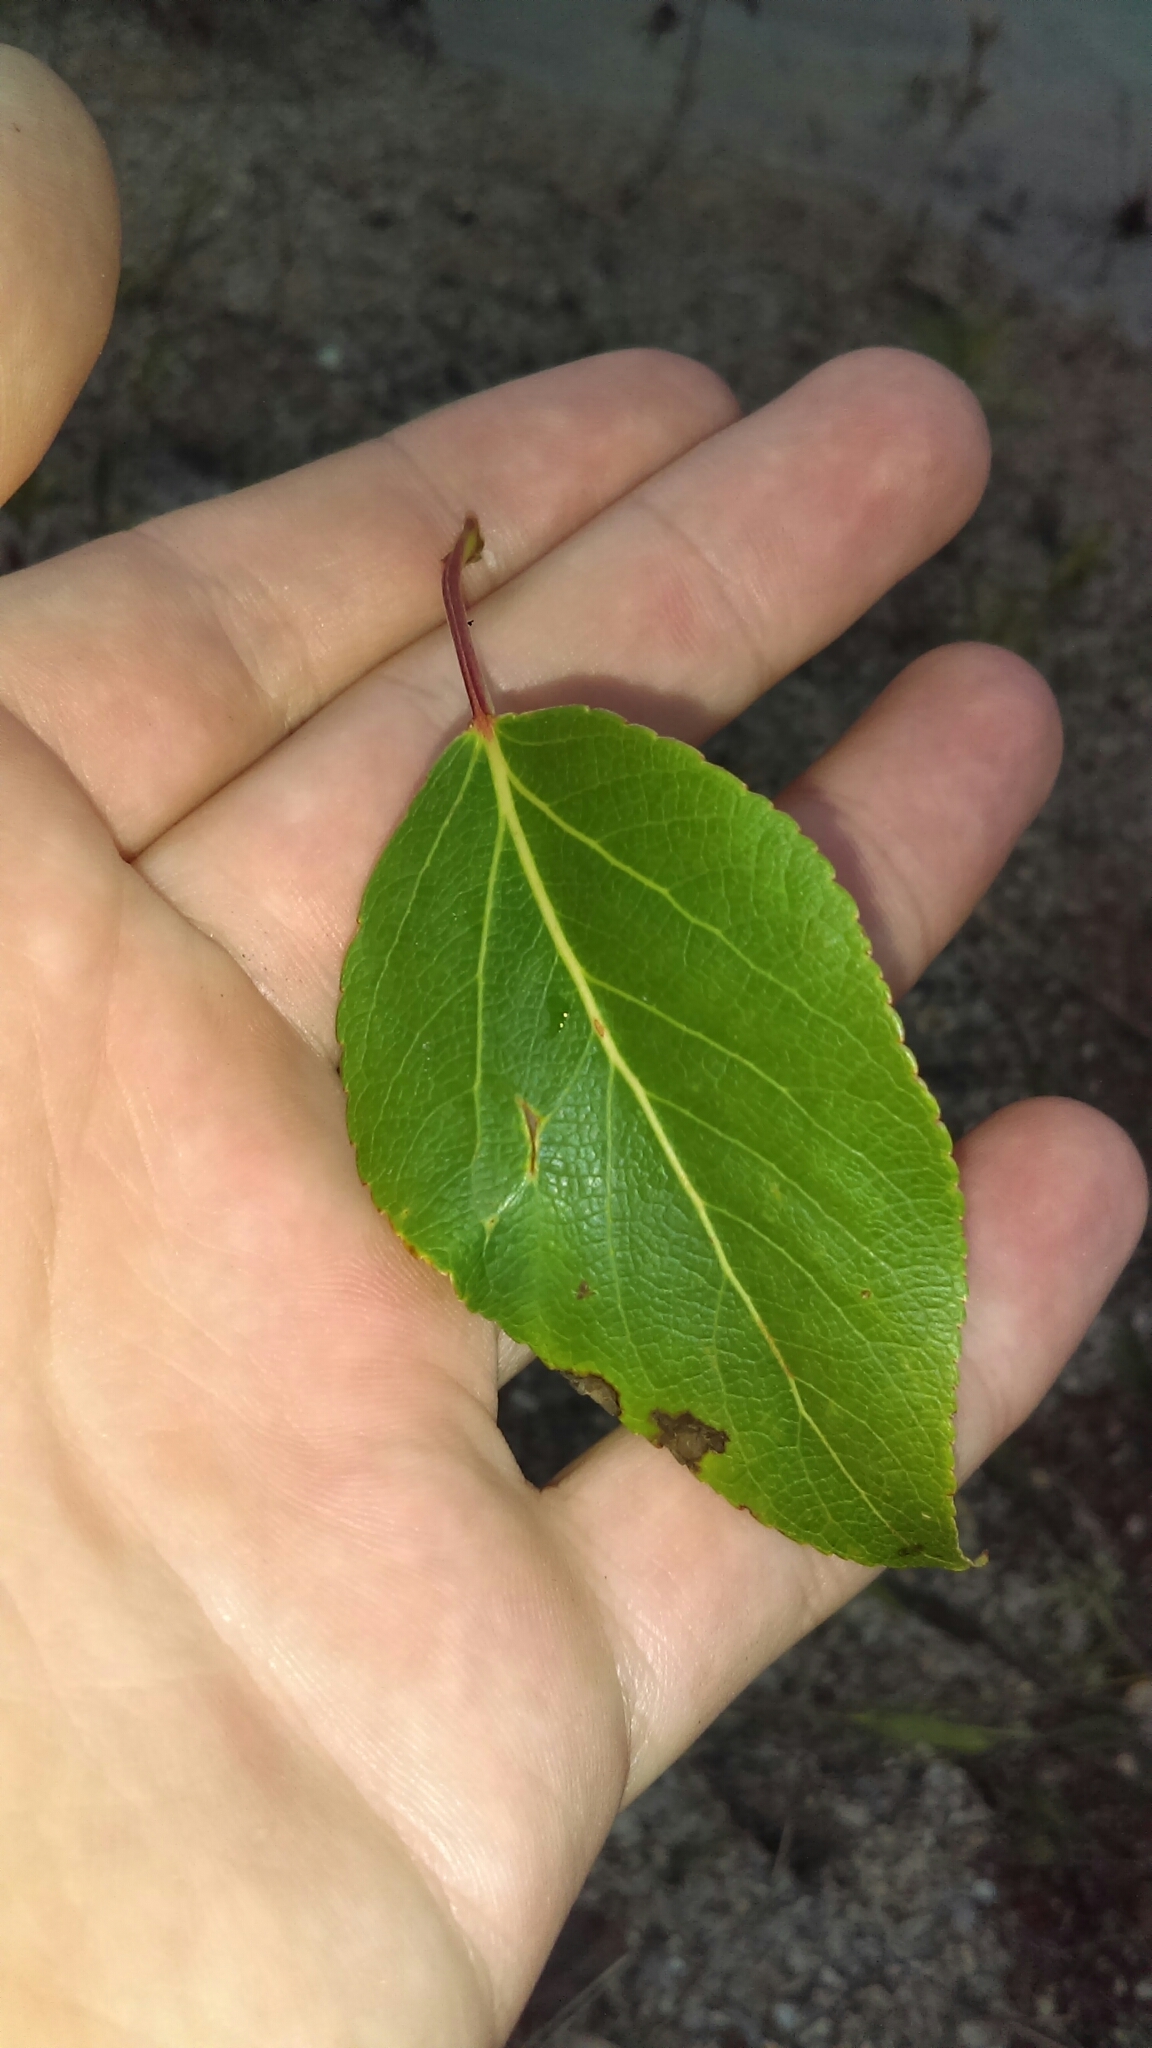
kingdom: Plantae
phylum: Tracheophyta
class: Magnoliopsida
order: Malpighiales
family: Salicaceae
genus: Populus
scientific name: Populus balsamifera
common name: Balsam poplar
